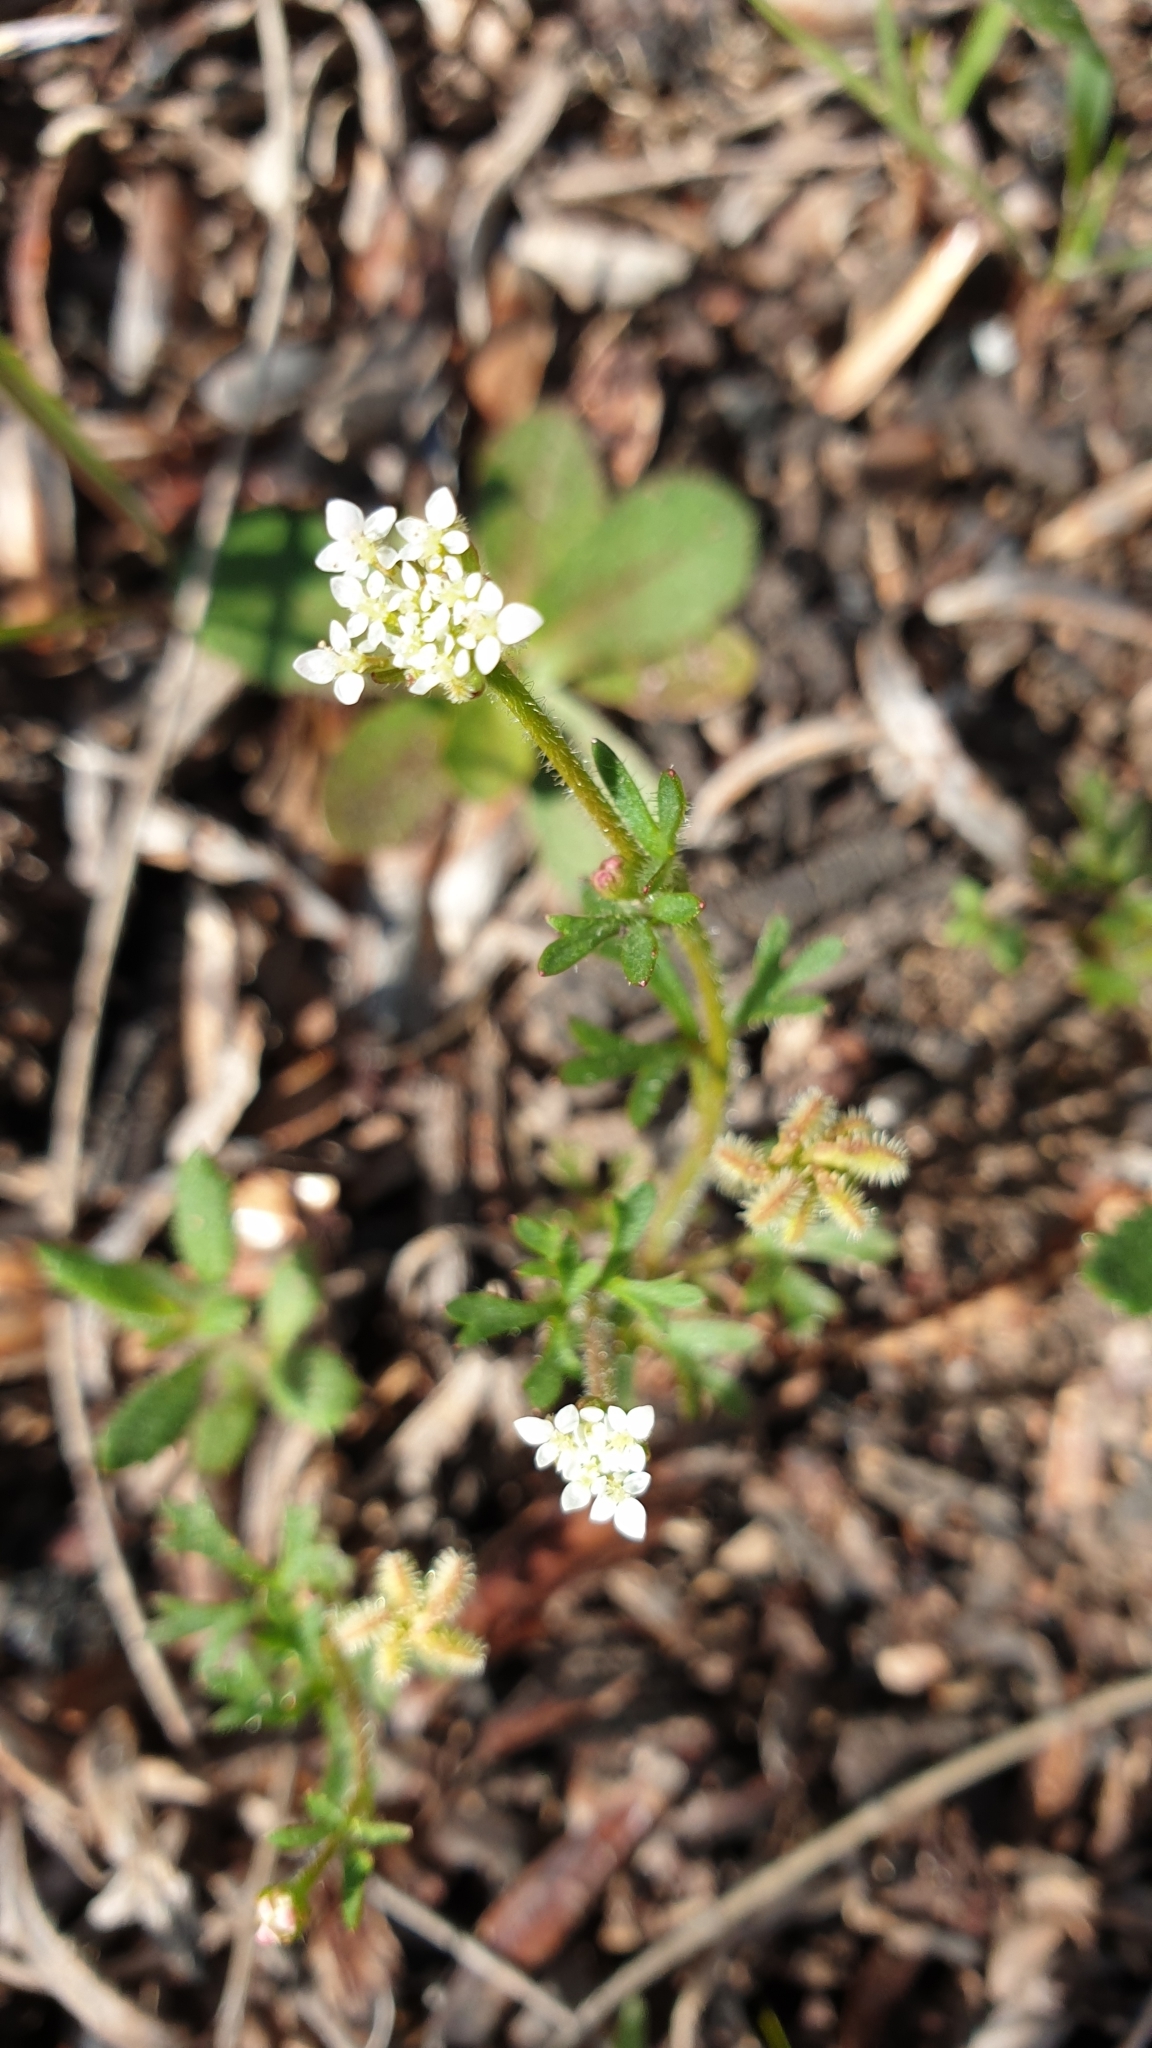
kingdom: Plantae
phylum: Tracheophyta
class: Magnoliopsida
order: Apiales
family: Araliaceae
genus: Trachymene
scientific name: Trachymene pilosa
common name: Dwarf trachymene
